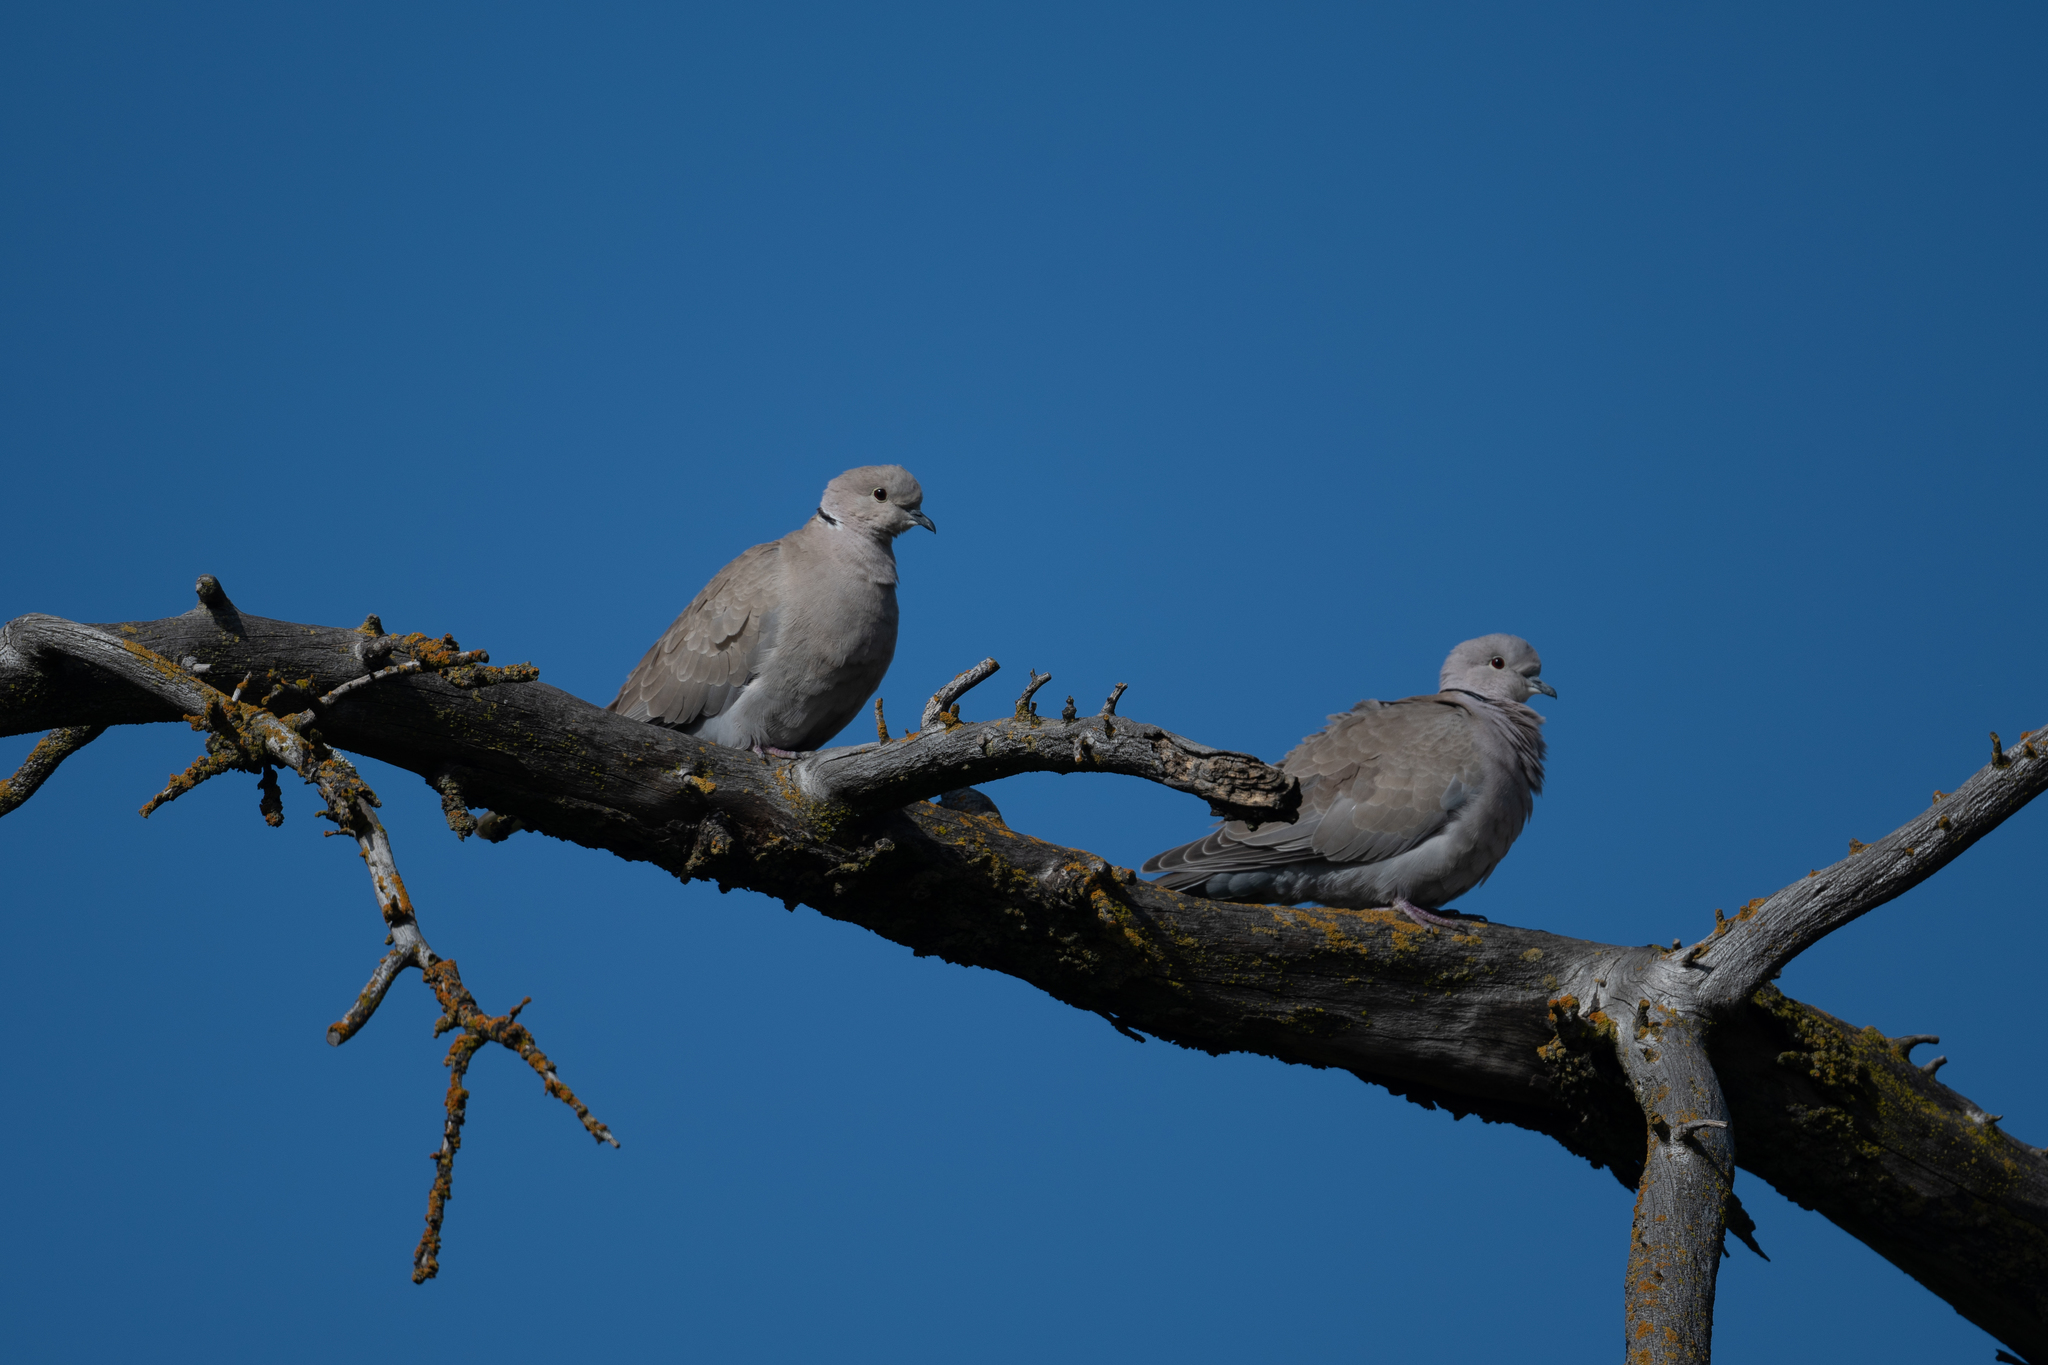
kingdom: Animalia
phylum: Chordata
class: Aves
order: Columbiformes
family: Columbidae
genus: Streptopelia
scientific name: Streptopelia decaocto
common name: Eurasian collared dove
